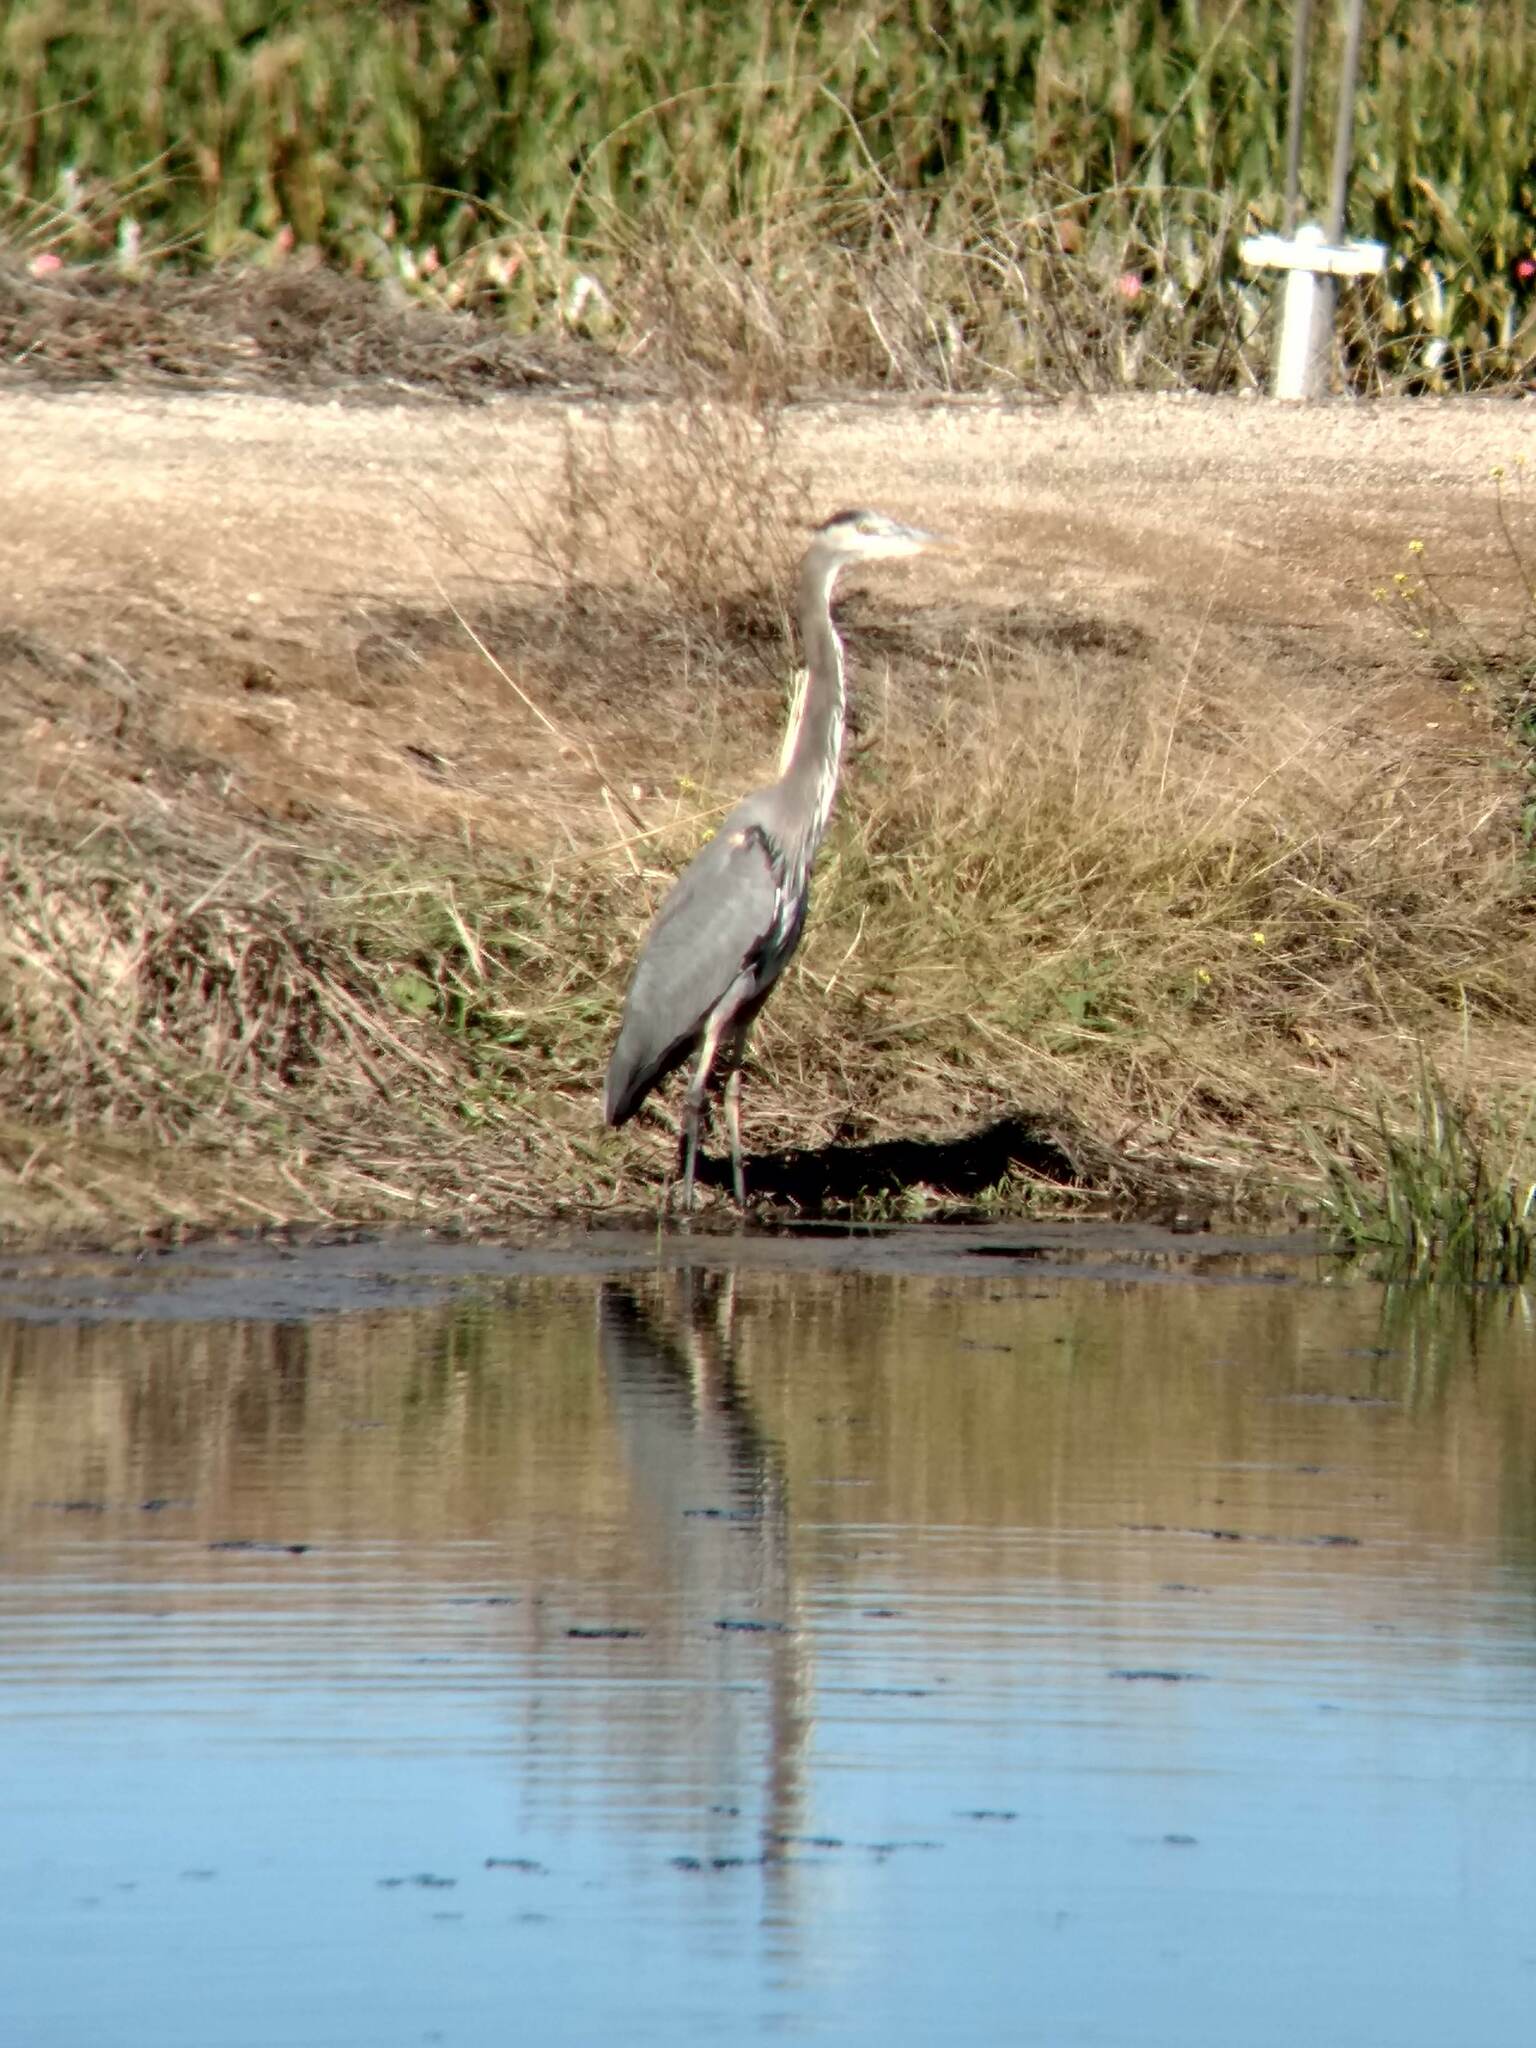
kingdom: Animalia
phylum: Chordata
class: Aves
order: Pelecaniformes
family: Ardeidae
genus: Ardea
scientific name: Ardea herodias
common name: Great blue heron
